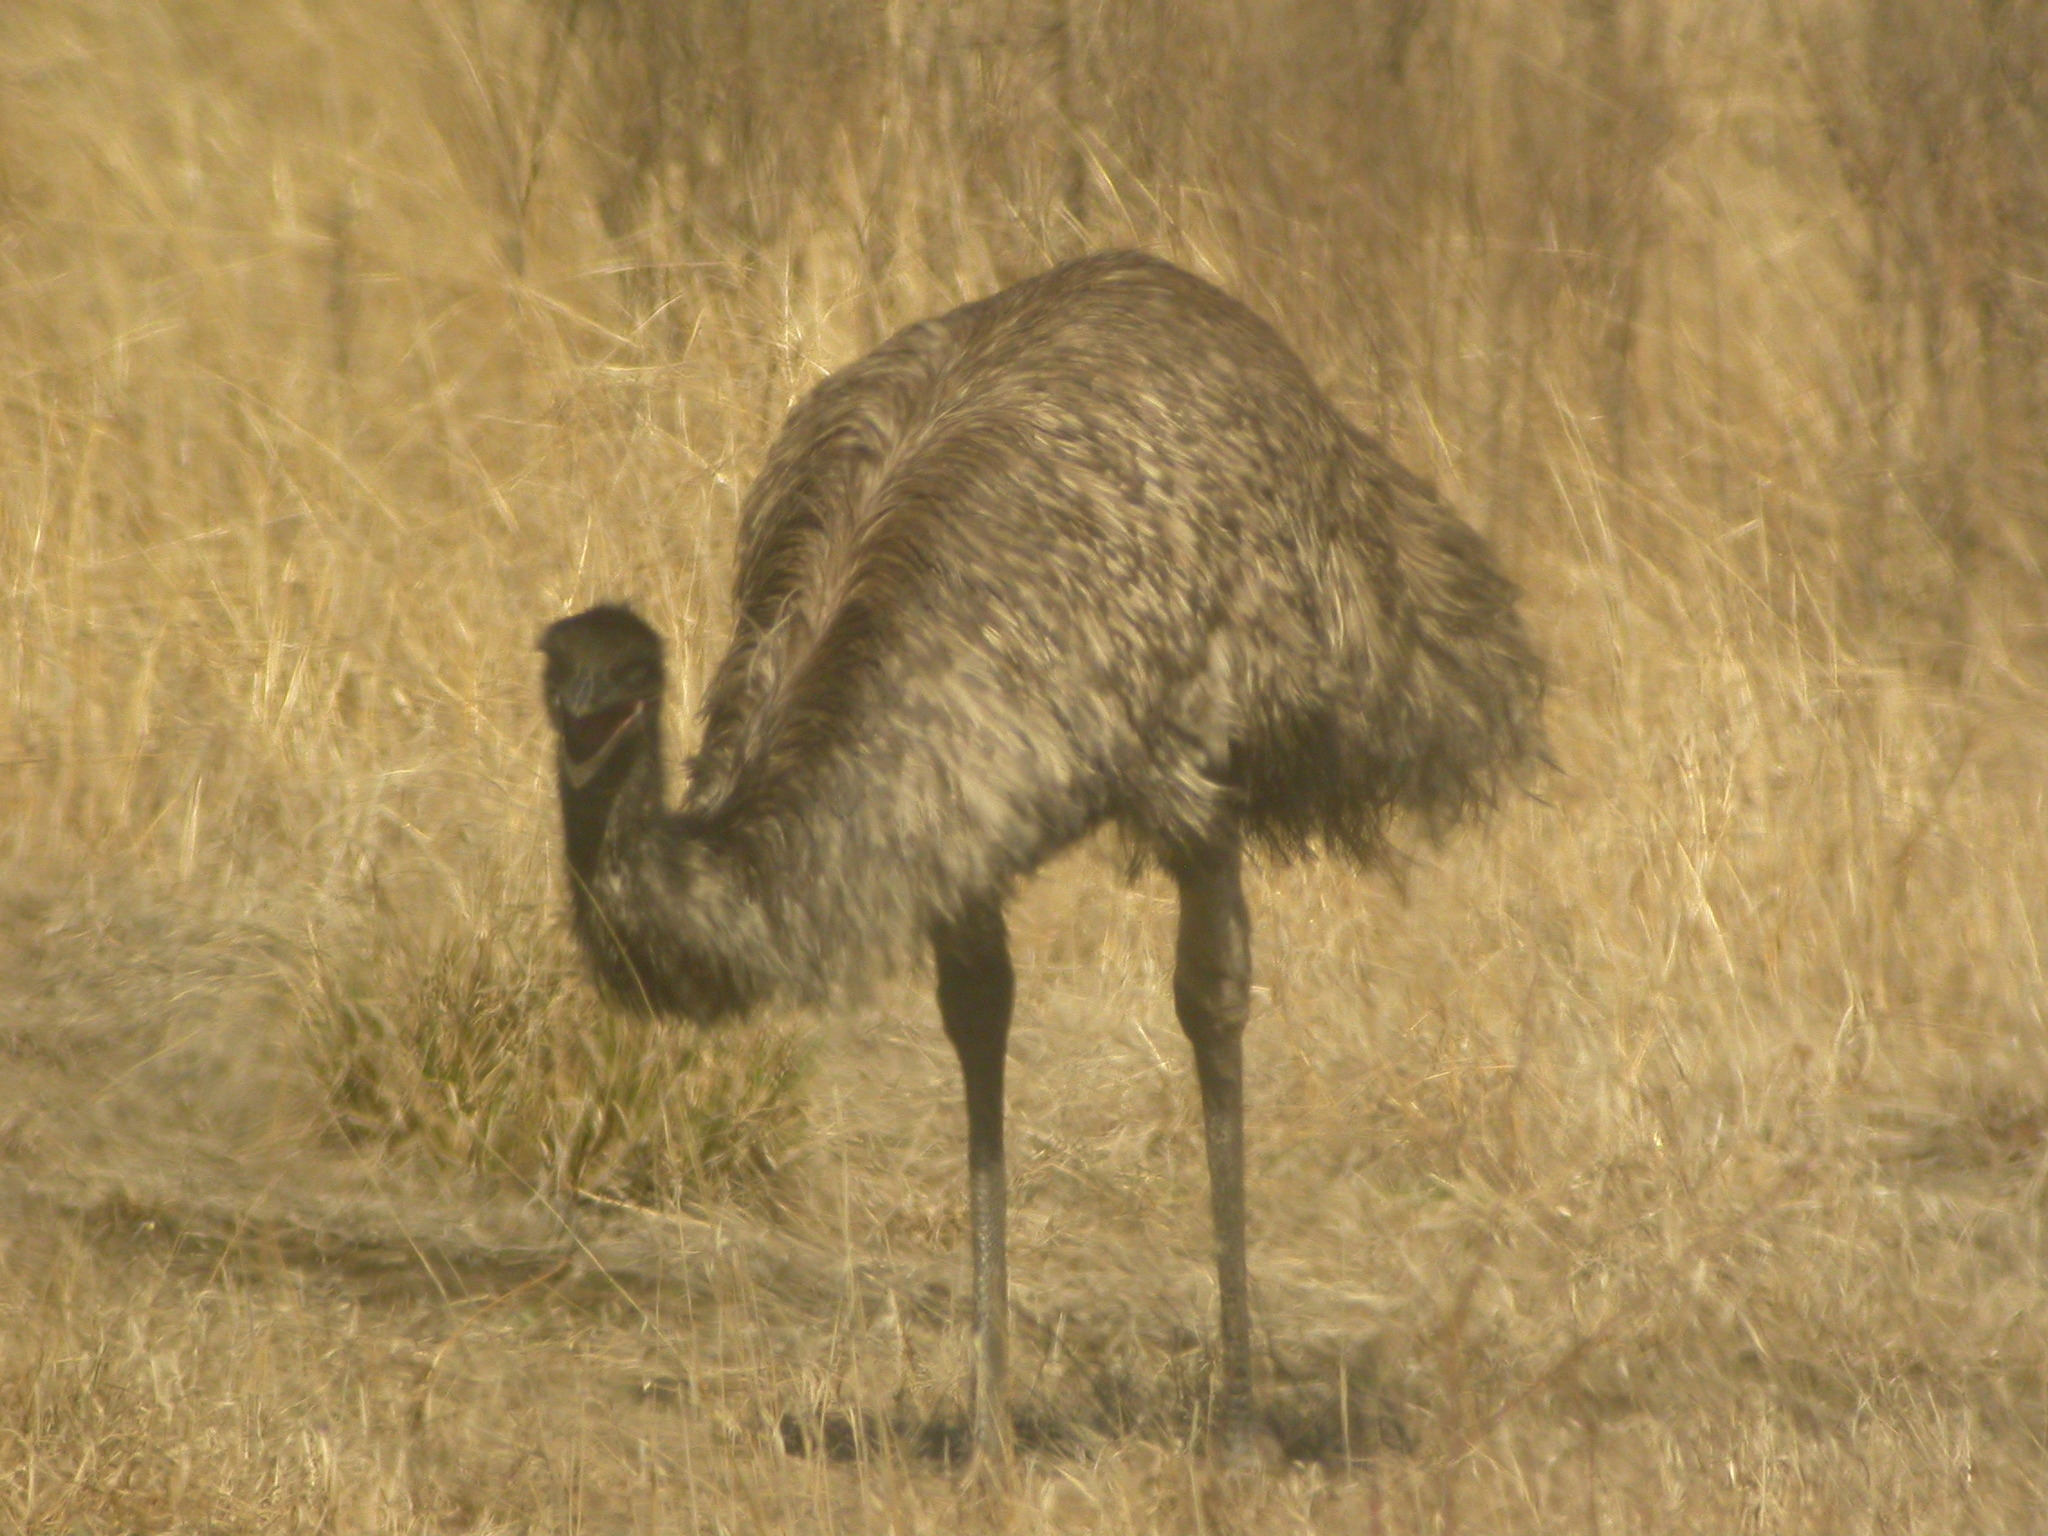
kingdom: Animalia
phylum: Chordata
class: Aves
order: Casuariiformes
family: Dromaiidae
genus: Dromaius
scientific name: Dromaius novaehollandiae
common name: Emu
